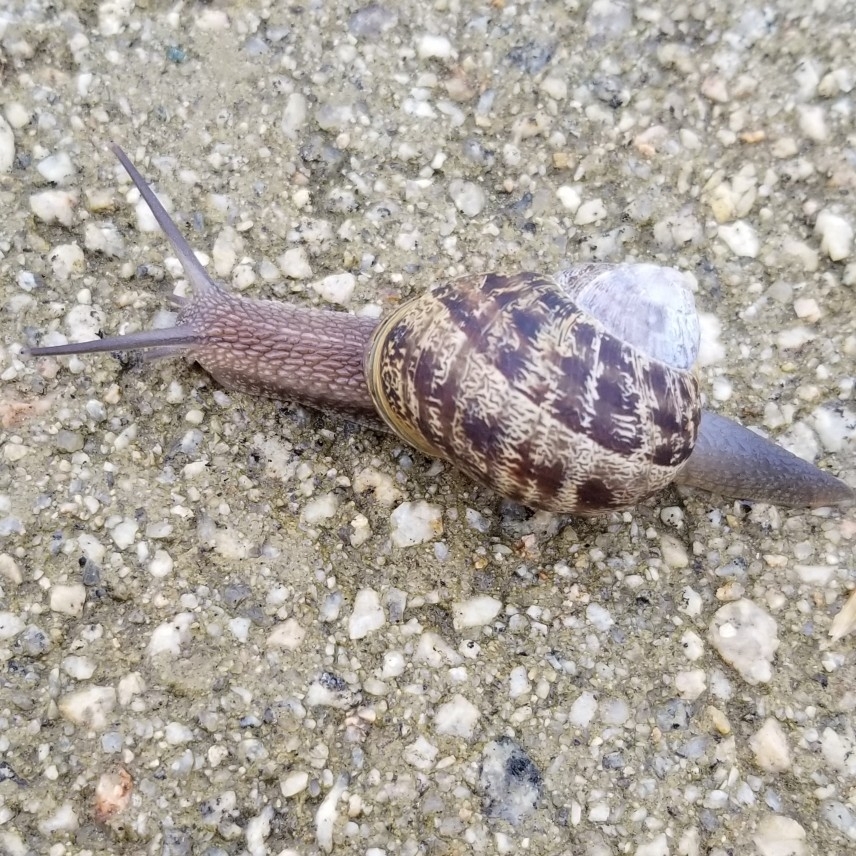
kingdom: Animalia
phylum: Mollusca
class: Gastropoda
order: Stylommatophora
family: Helicidae
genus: Cornu
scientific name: Cornu aspersum
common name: Brown garden snail
